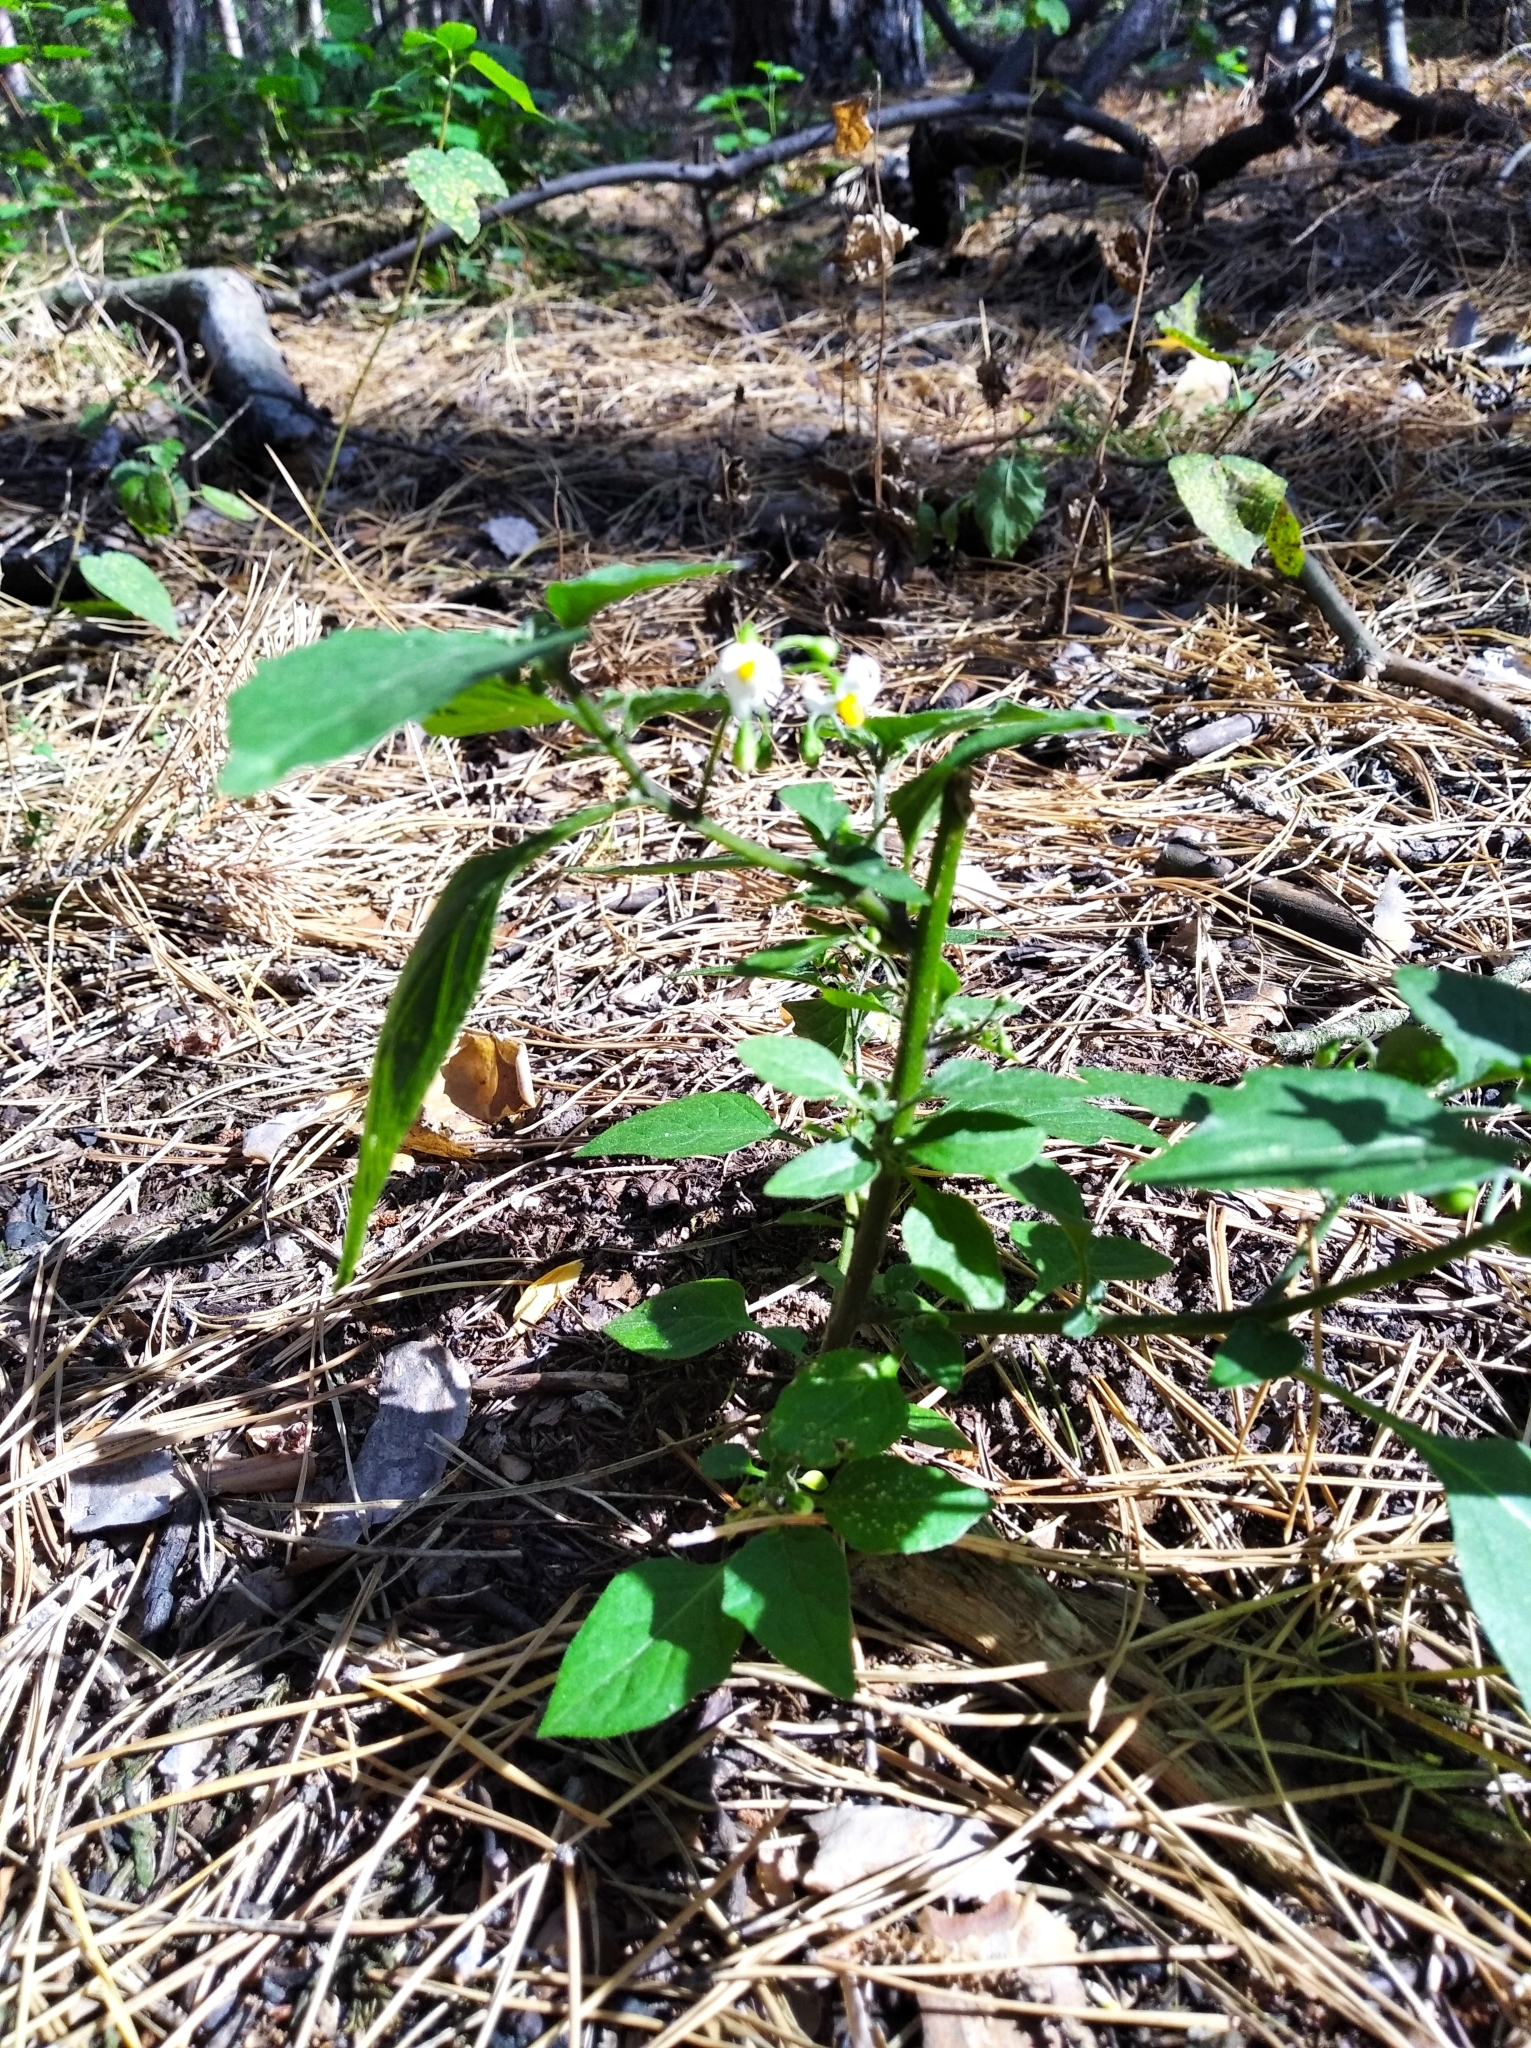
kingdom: Plantae
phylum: Tracheophyta
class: Magnoliopsida
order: Solanales
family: Solanaceae
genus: Solanum
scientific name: Solanum nigrum
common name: Black nightshade
